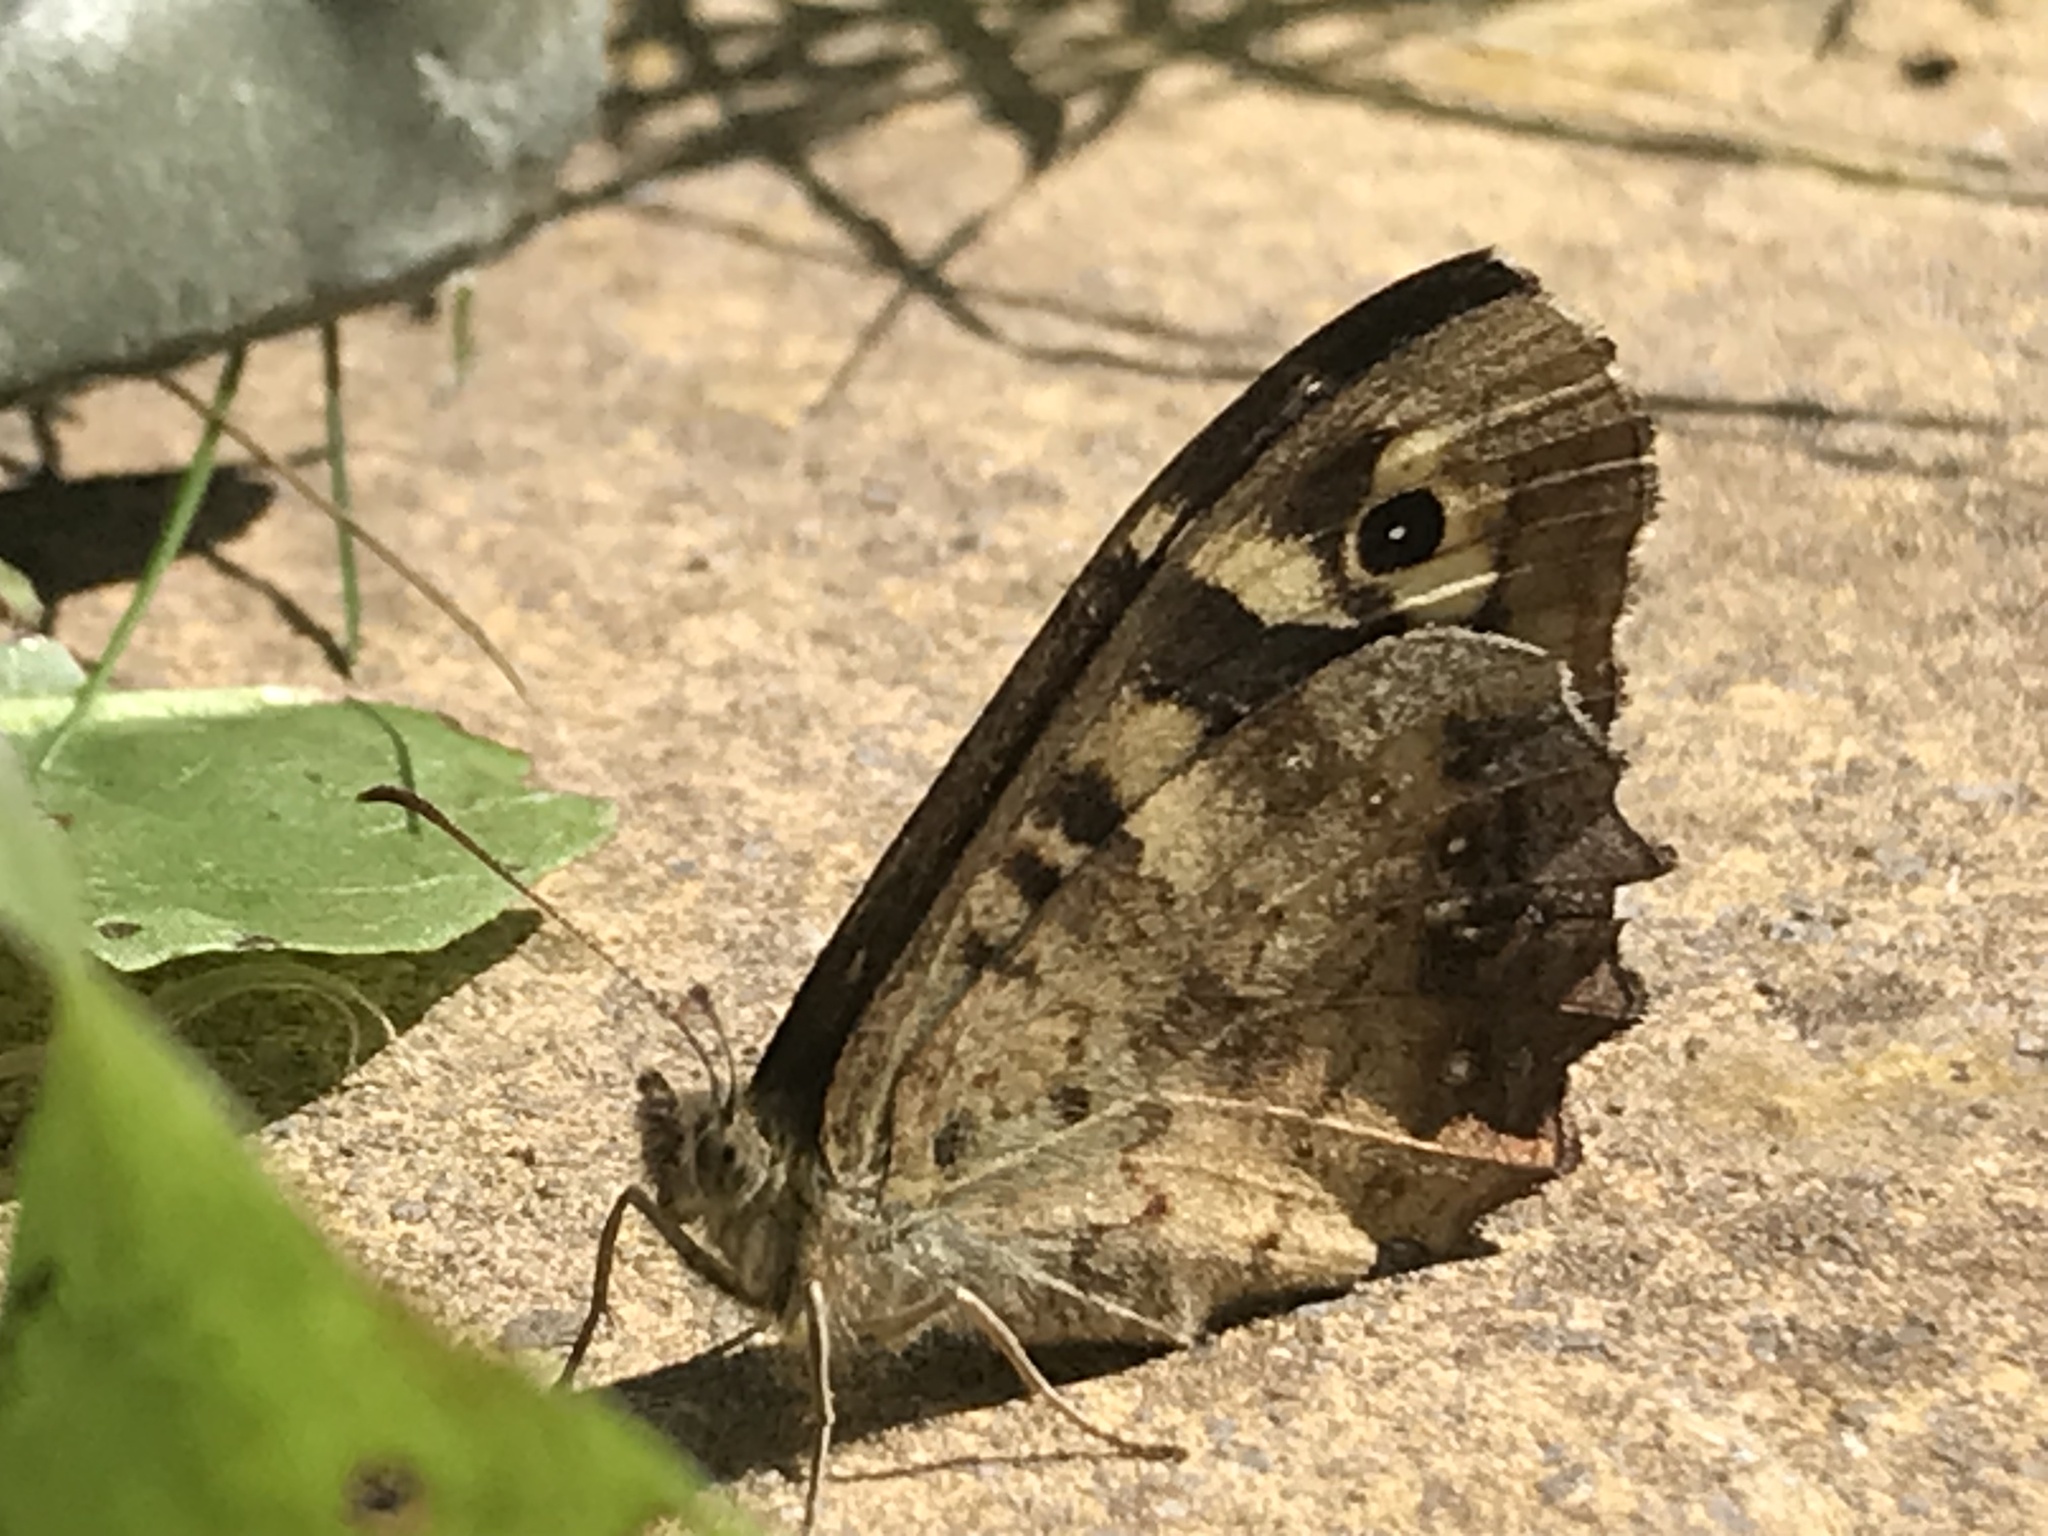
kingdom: Animalia
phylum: Arthropoda
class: Insecta
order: Lepidoptera
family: Nymphalidae
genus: Pararge
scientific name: Pararge aegeria
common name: Speckled wood
